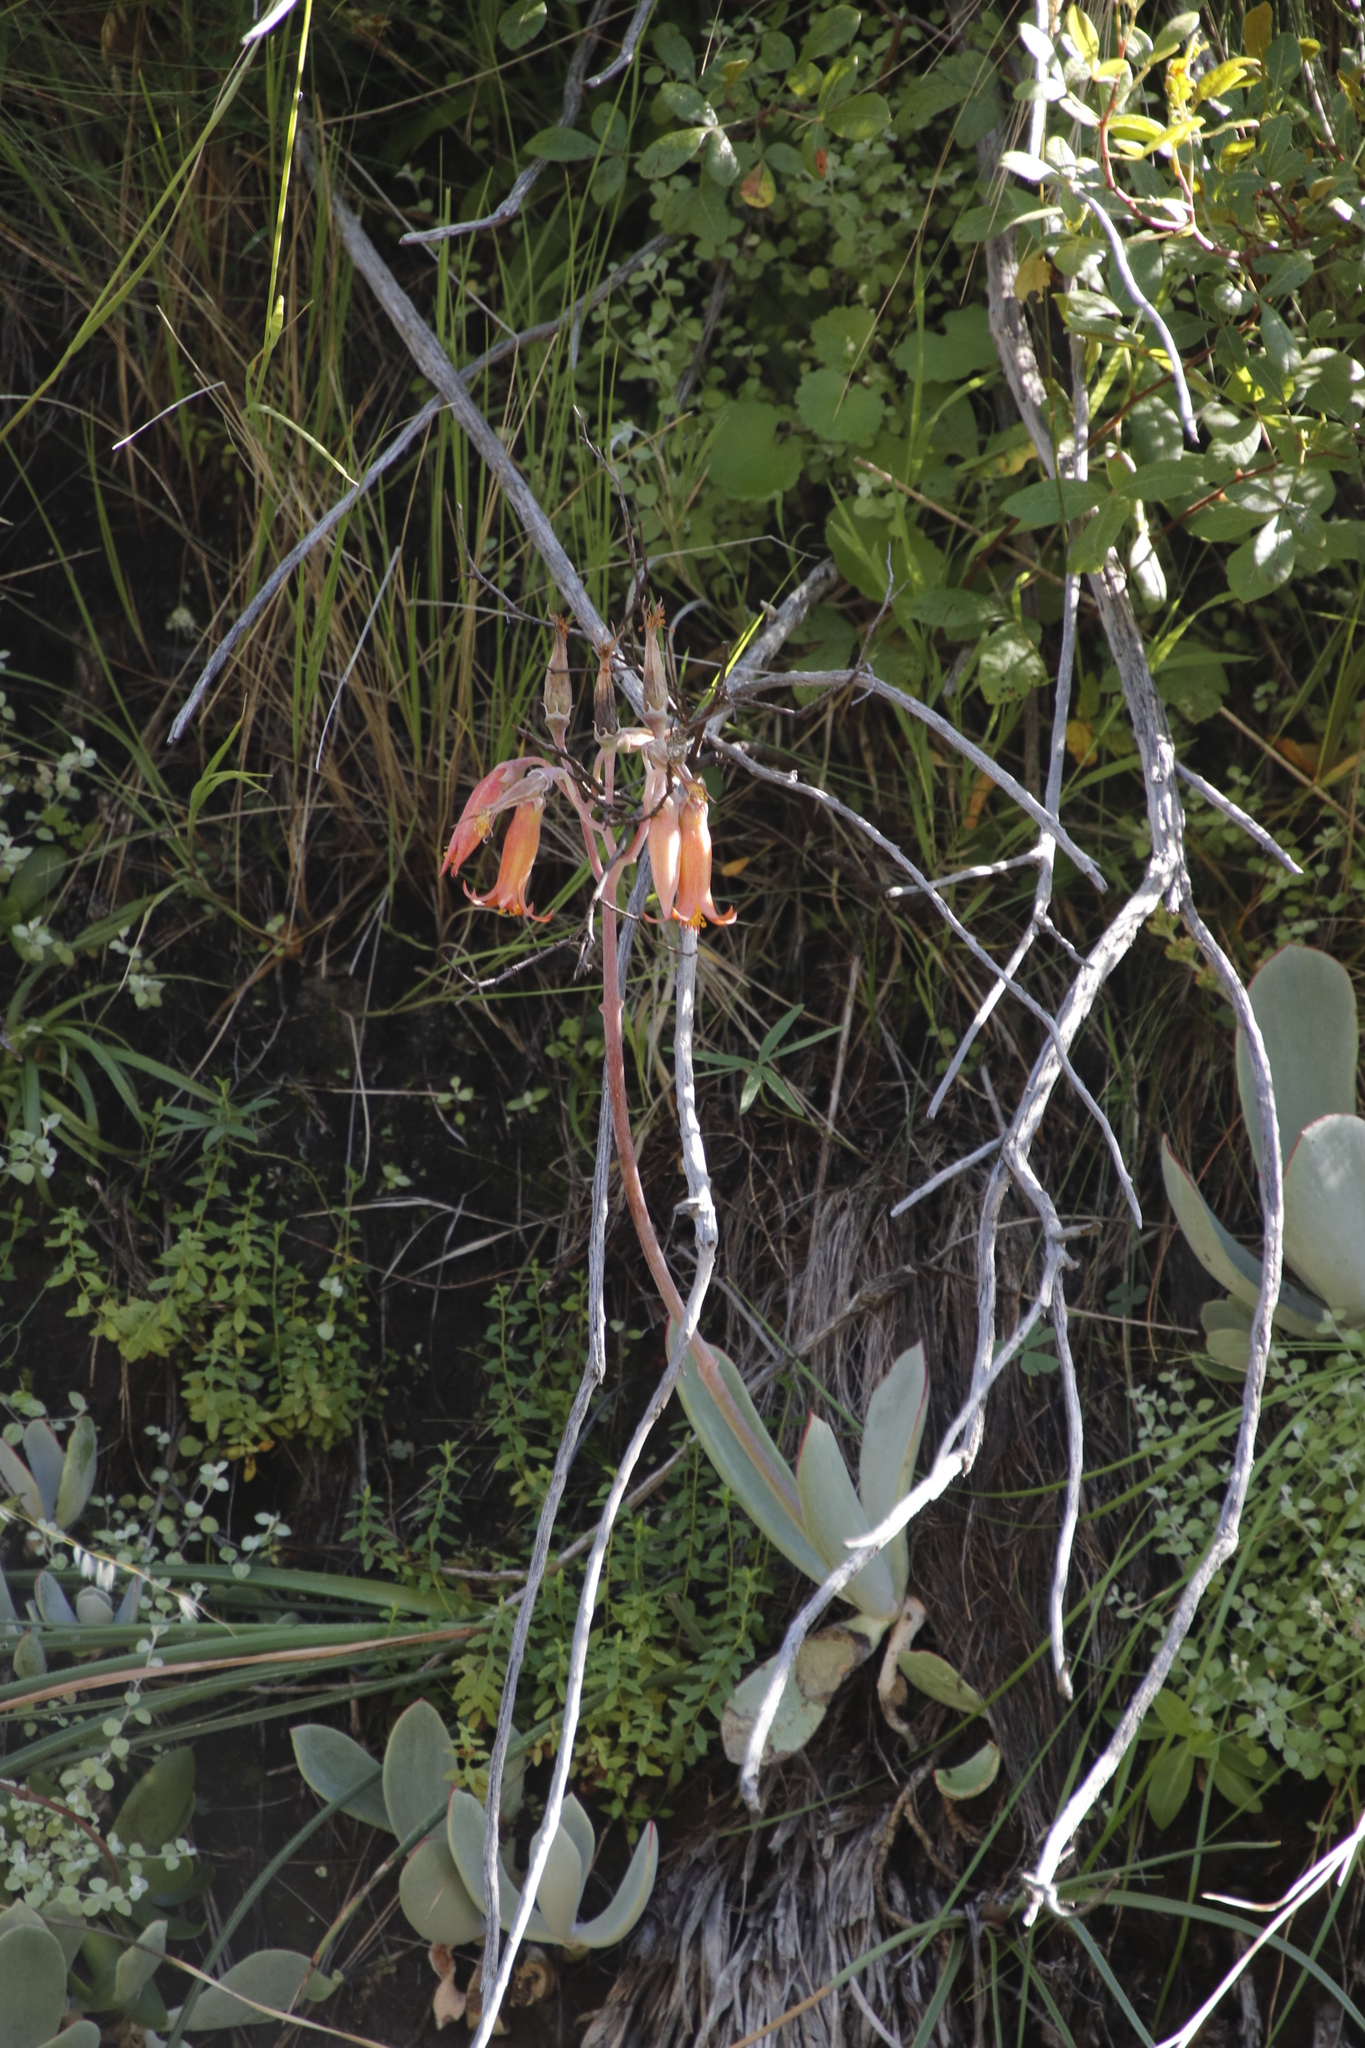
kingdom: Plantae
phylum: Tracheophyta
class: Magnoliopsida
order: Saxifragales
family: Crassulaceae
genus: Cotyledon
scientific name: Cotyledon orbiculata
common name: Pig's ear
